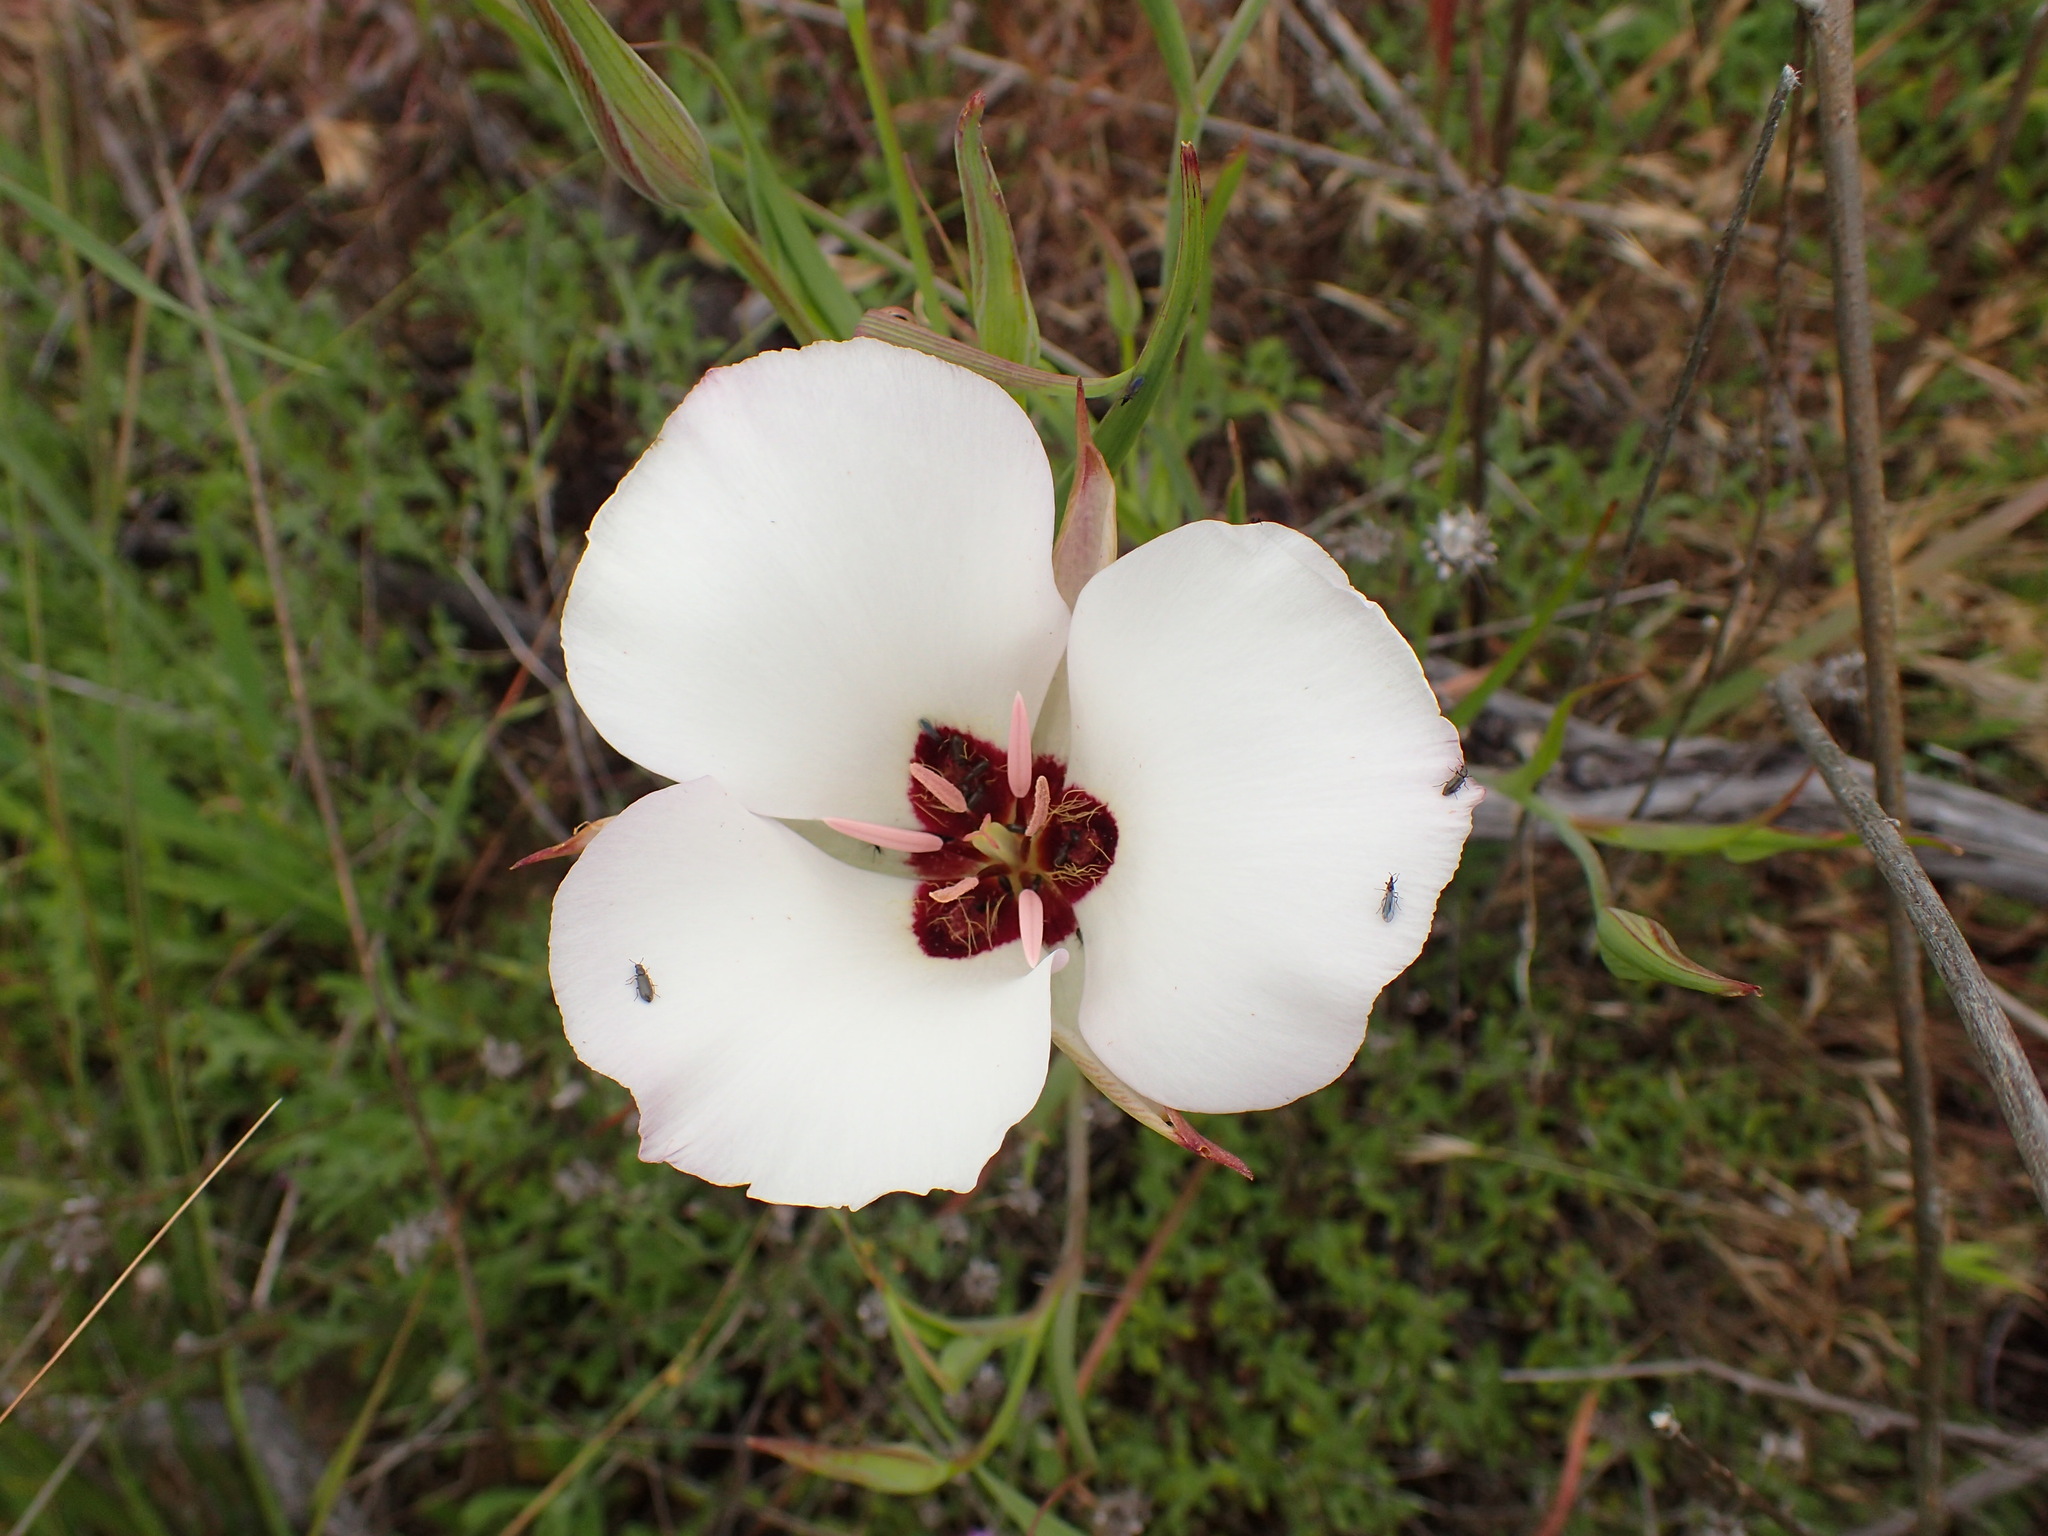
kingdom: Plantae
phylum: Tracheophyta
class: Liliopsida
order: Liliales
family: Liliaceae
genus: Calochortus
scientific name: Calochortus catalinae
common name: Catalina mariposa-lily
